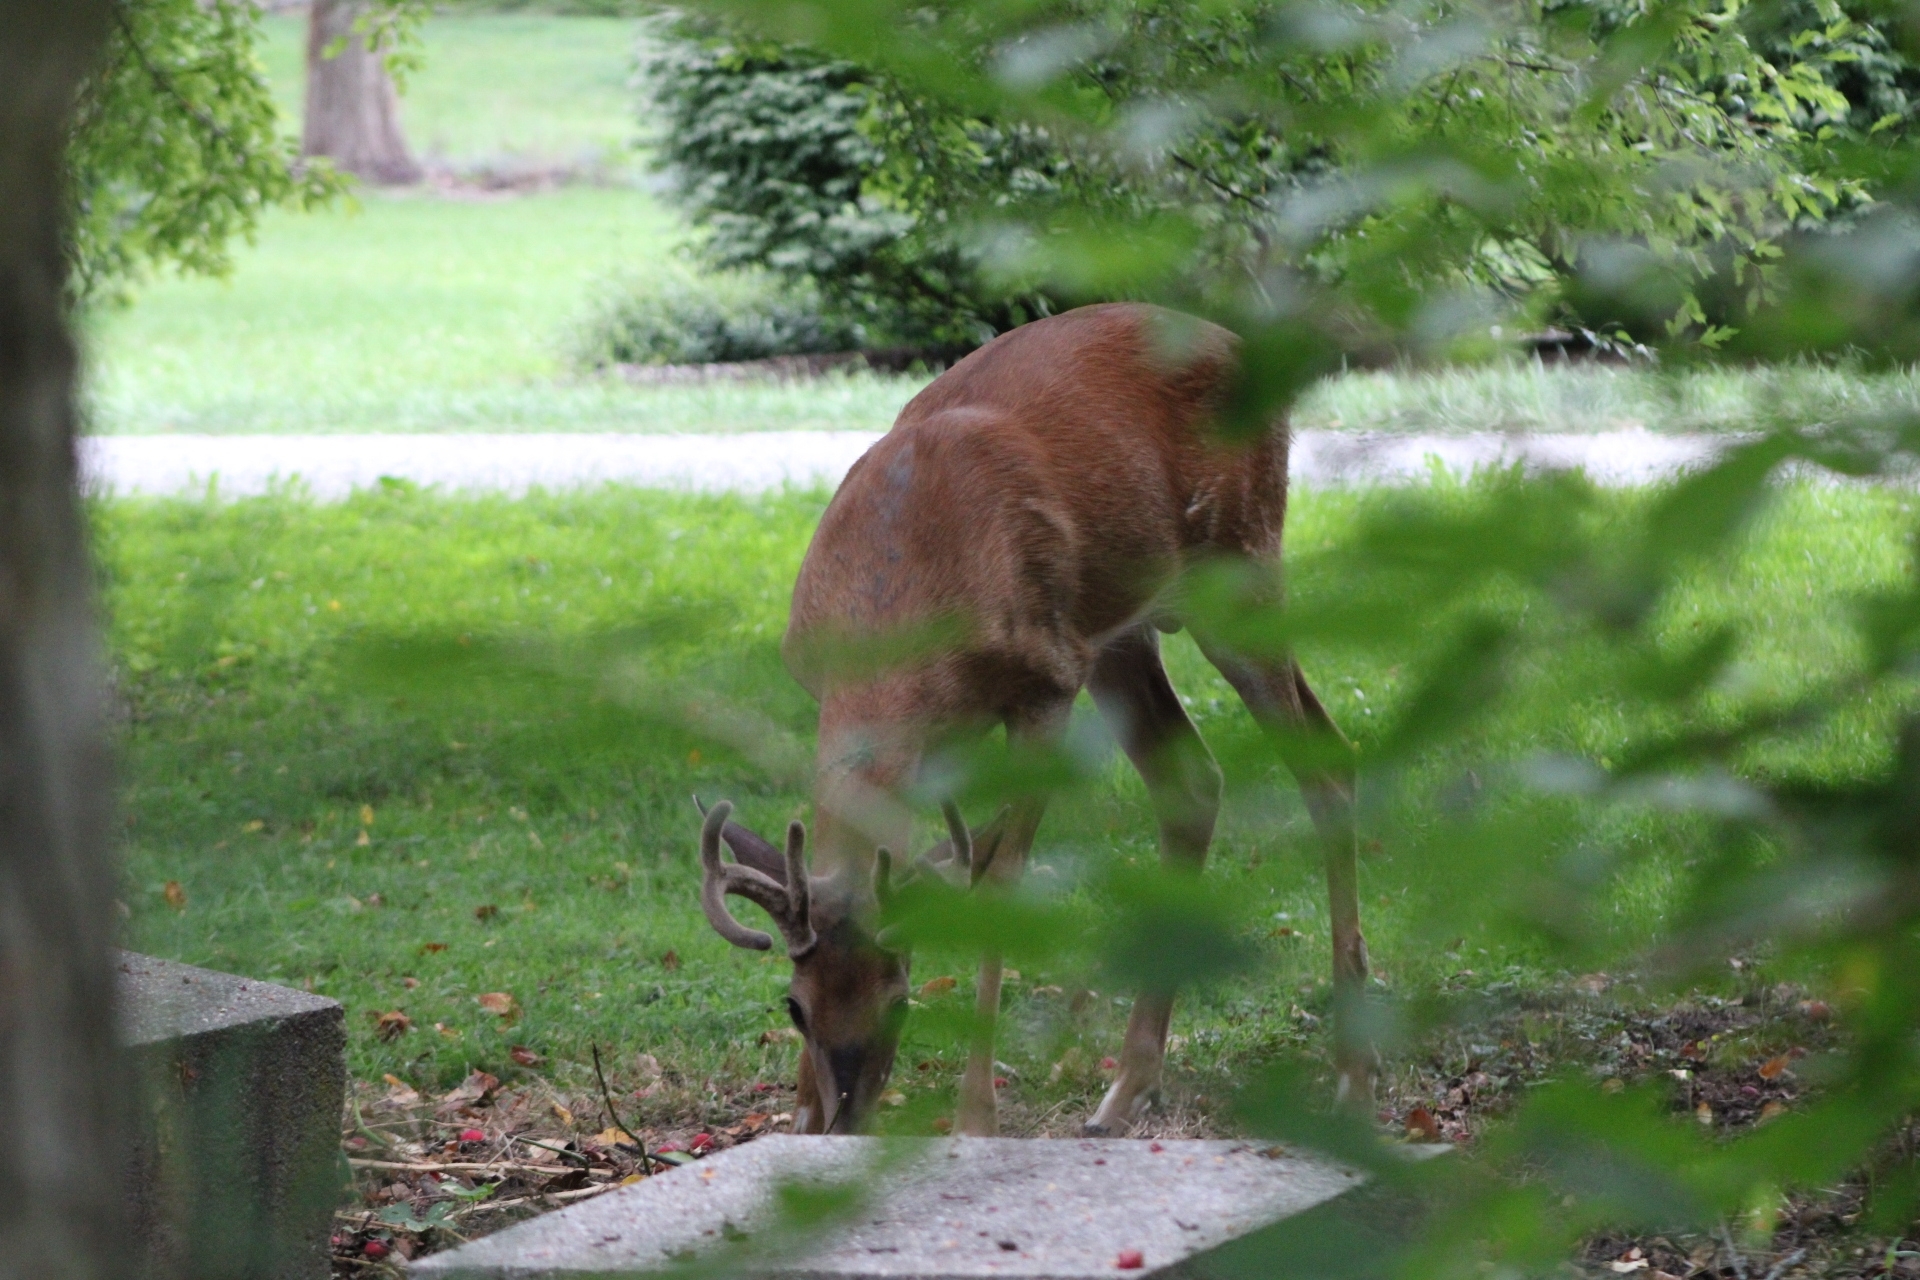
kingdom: Animalia
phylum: Chordata
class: Mammalia
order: Artiodactyla
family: Cervidae
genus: Odocoileus
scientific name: Odocoileus virginianus
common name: White-tailed deer
